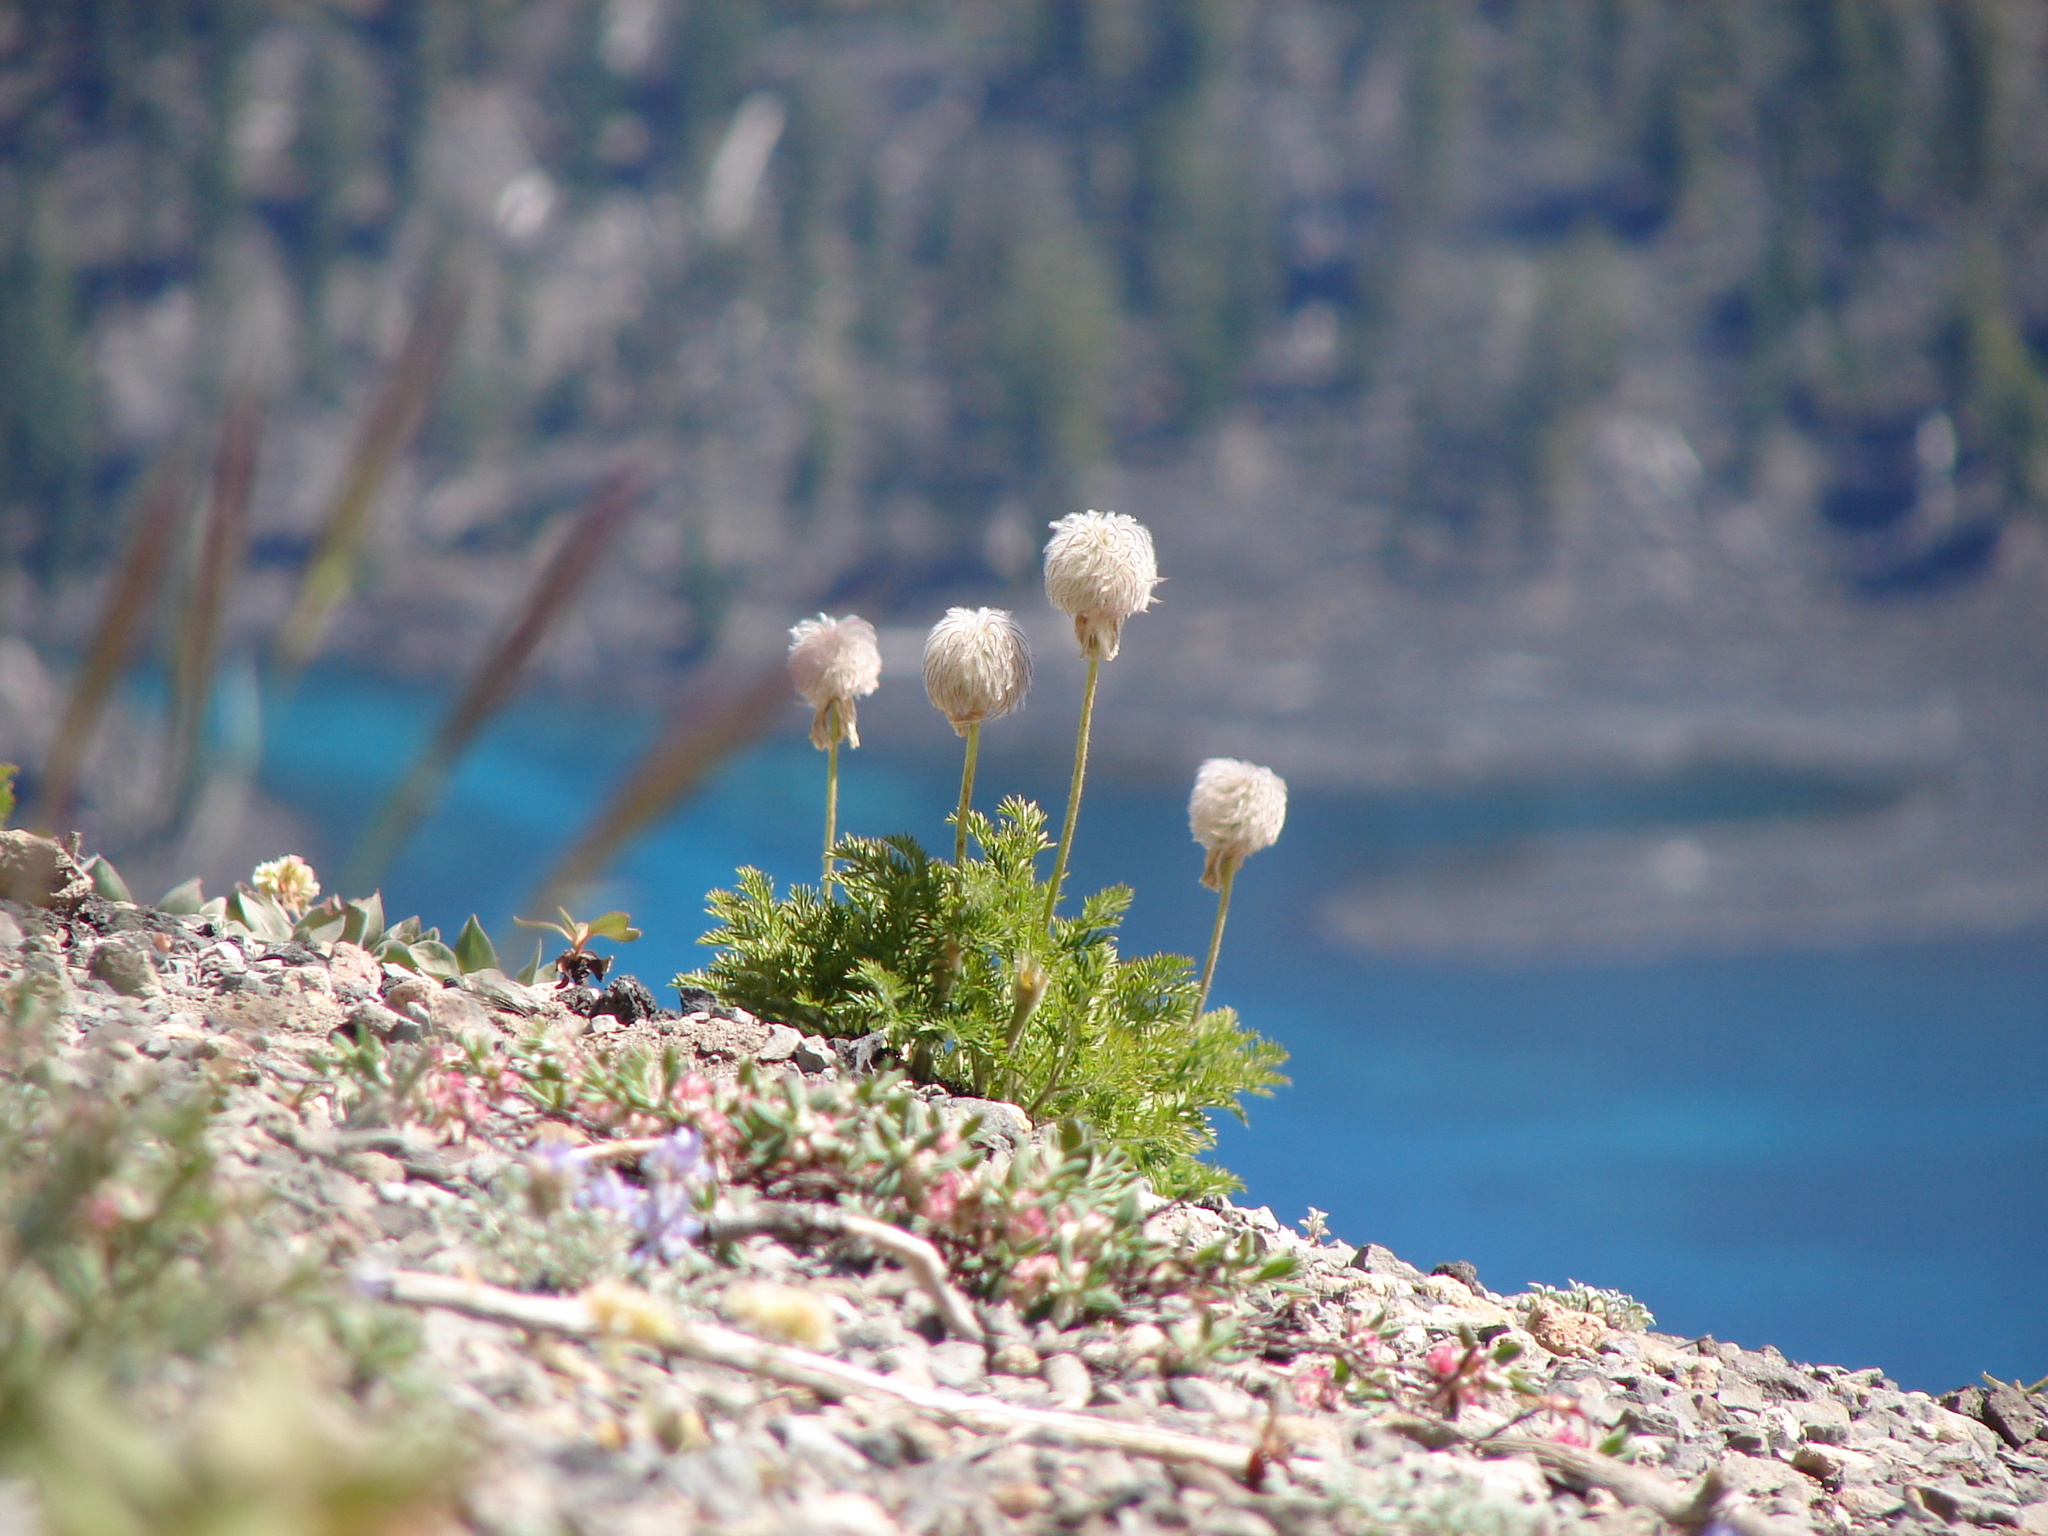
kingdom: Plantae
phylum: Tracheophyta
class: Magnoliopsida
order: Ranunculales
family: Ranunculaceae
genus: Pulsatilla
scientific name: Pulsatilla occidentalis
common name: Mountain pasqueflower
